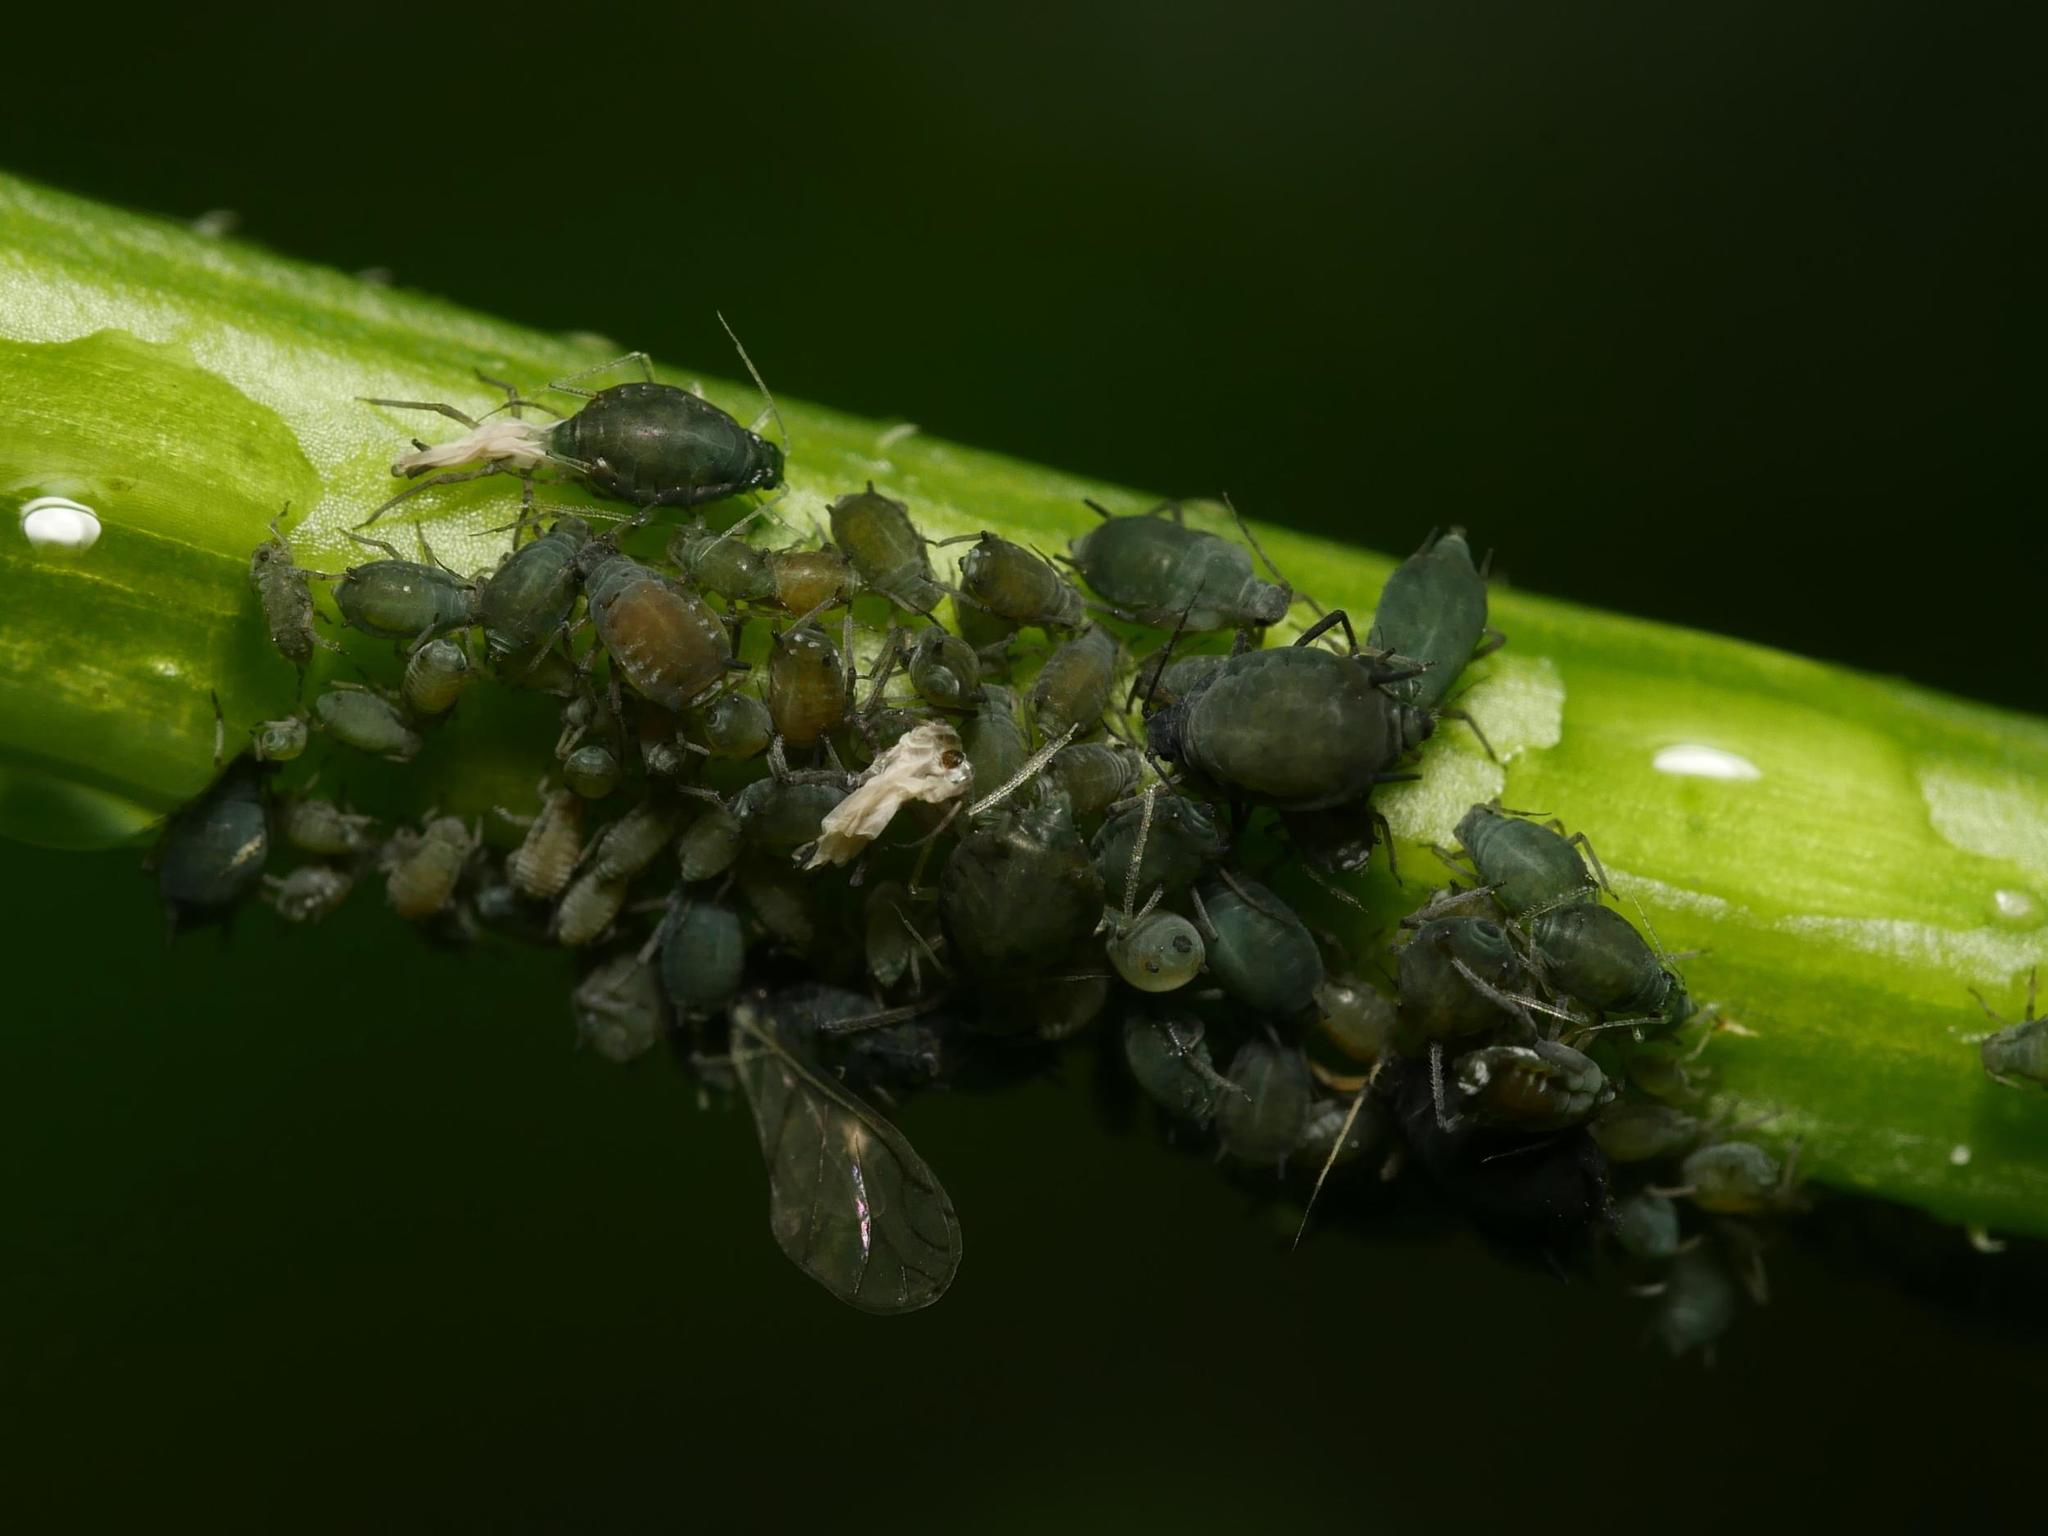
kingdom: Animalia
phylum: Arthropoda
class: Insecta
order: Hemiptera
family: Aphididae
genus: Aphis
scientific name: Aphis sambuci
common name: Elder aphid
